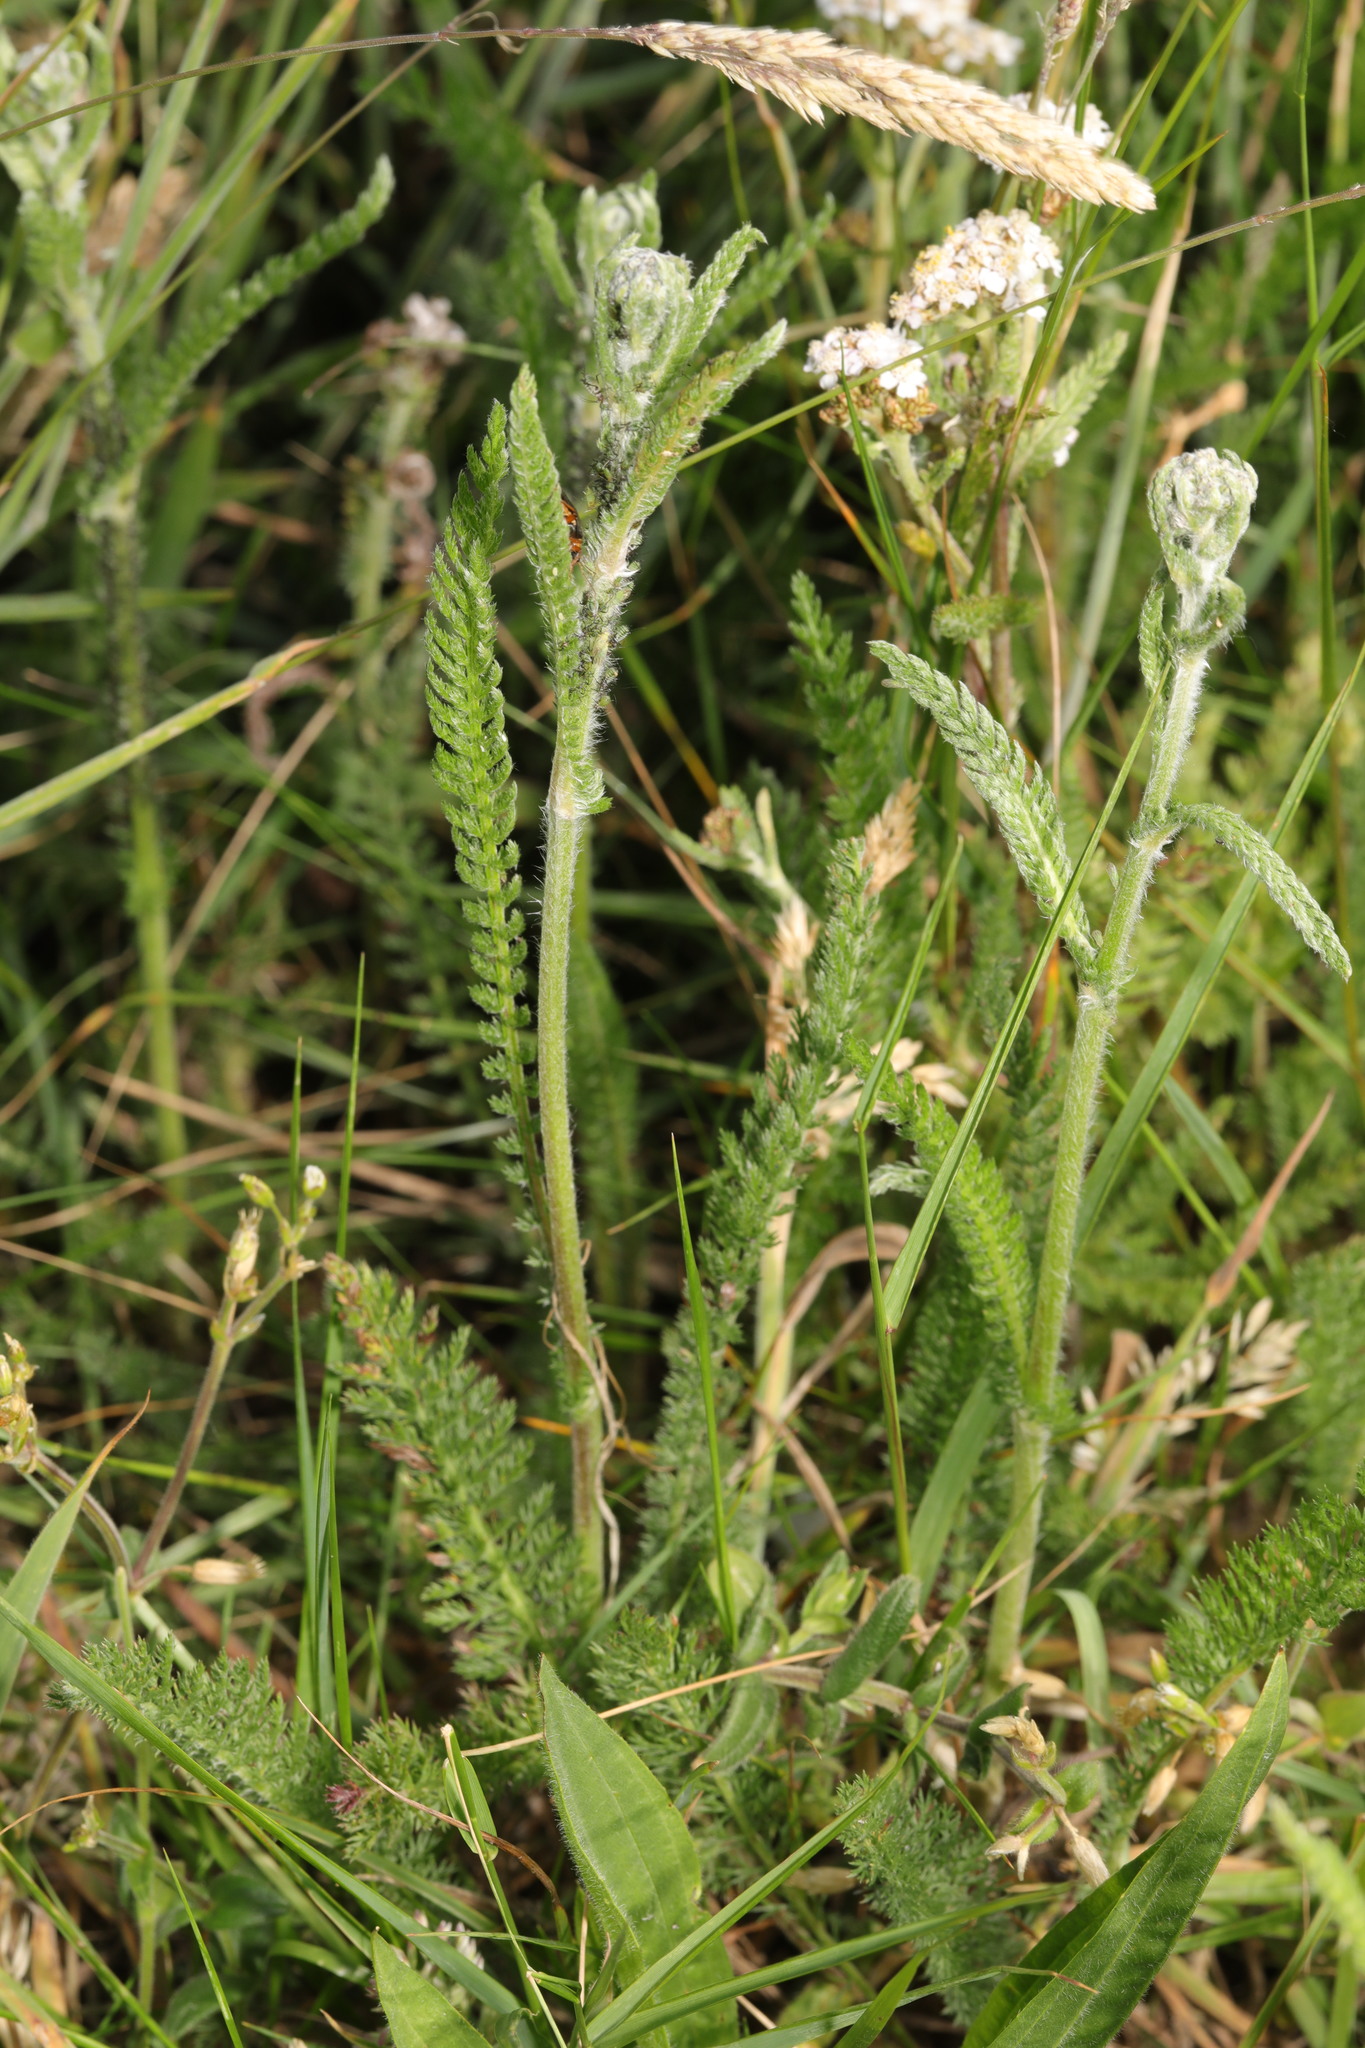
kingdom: Plantae
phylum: Tracheophyta
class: Magnoliopsida
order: Asterales
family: Asteraceae
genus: Achillea
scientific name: Achillea millefolium
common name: Yarrow
